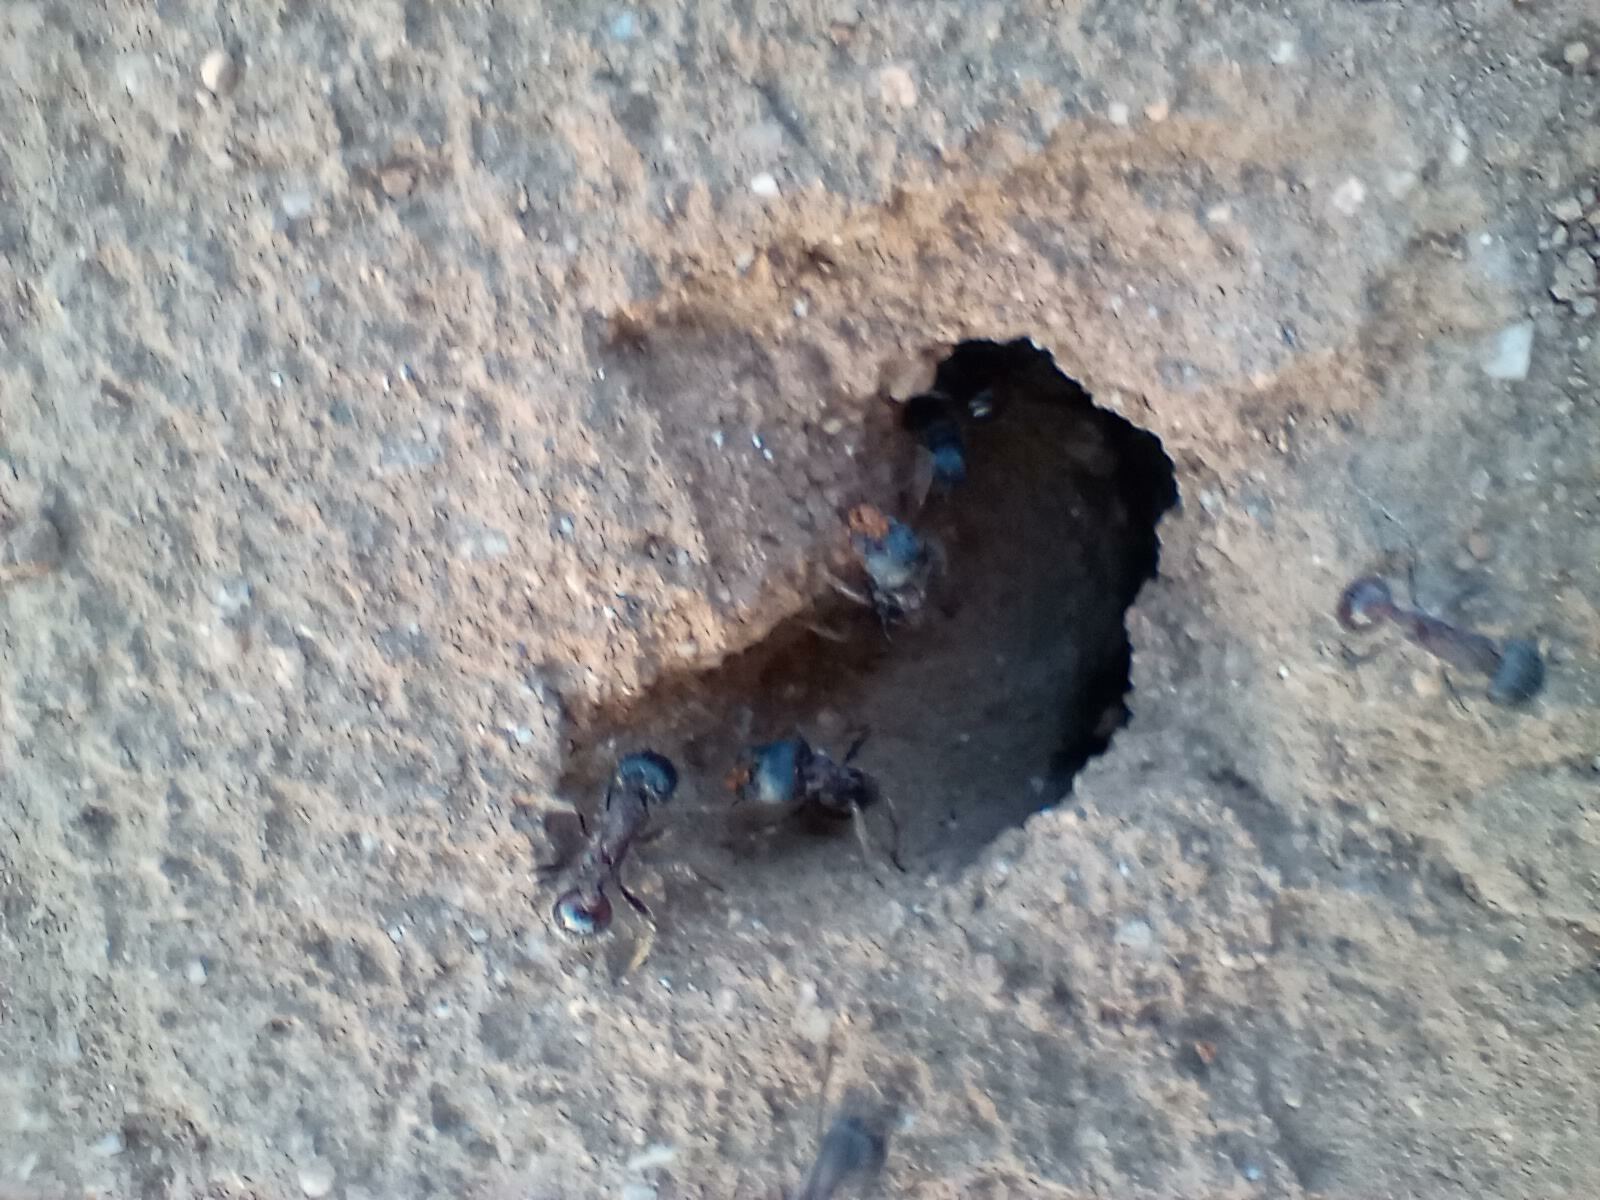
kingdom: Animalia
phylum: Arthropoda
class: Insecta
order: Hymenoptera
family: Formicidae
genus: Pogonomyrmex
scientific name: Pogonomyrmex rugosus
